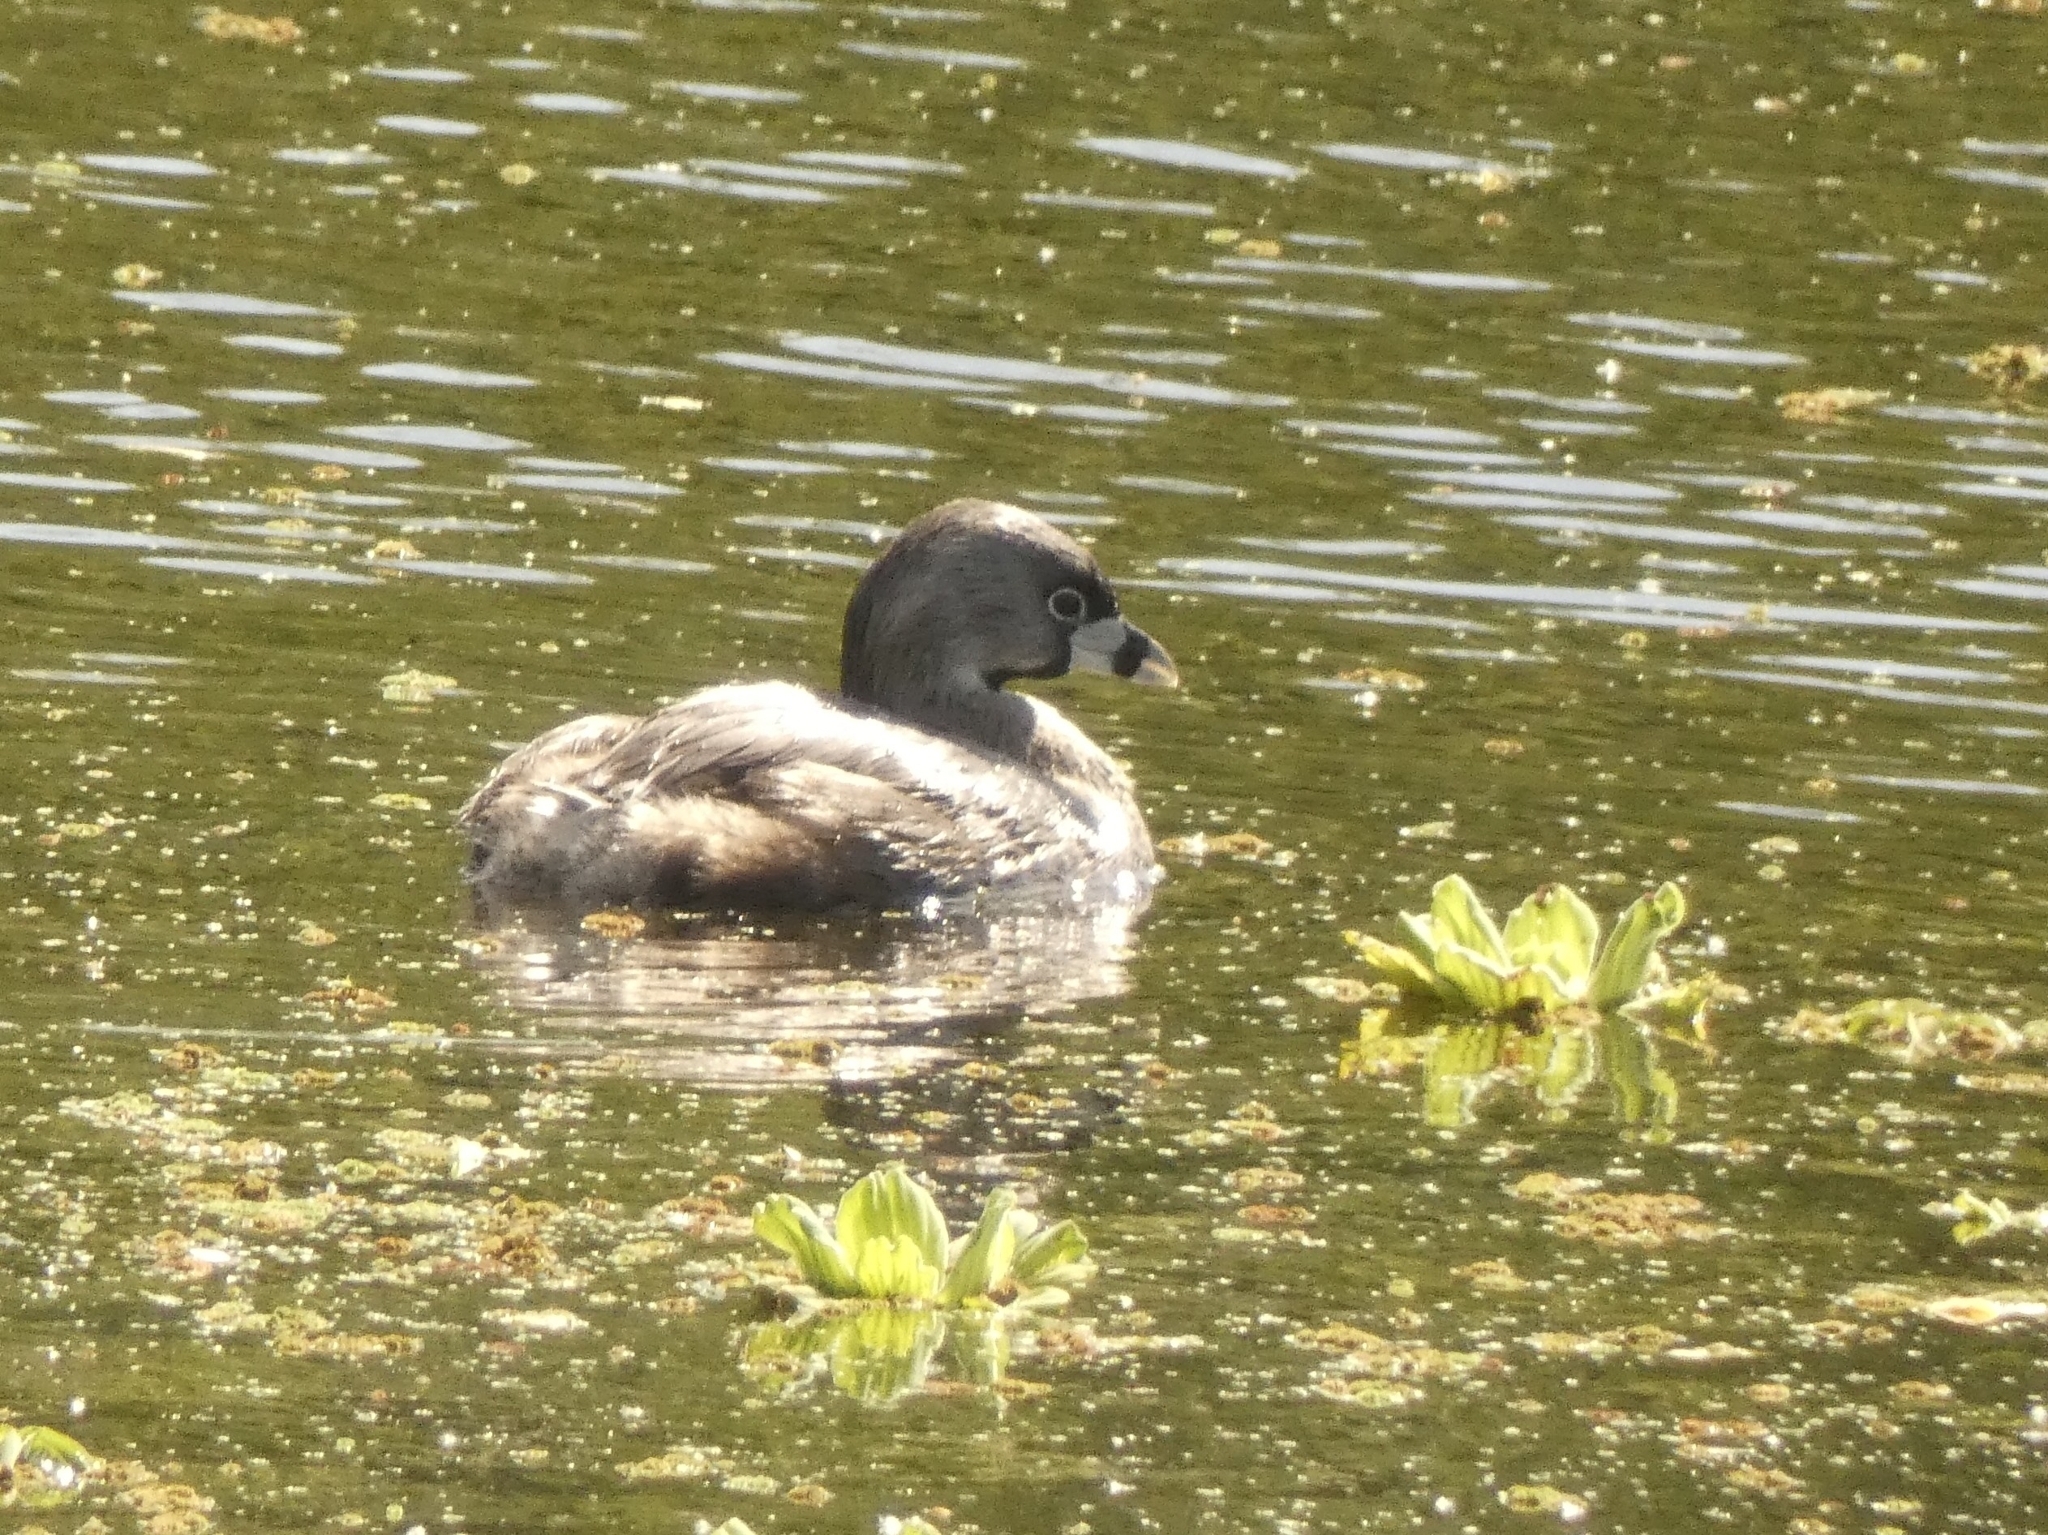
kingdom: Animalia
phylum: Chordata
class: Aves
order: Podicipediformes
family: Podicipedidae
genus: Podilymbus
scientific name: Podilymbus podiceps
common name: Pied-billed grebe
